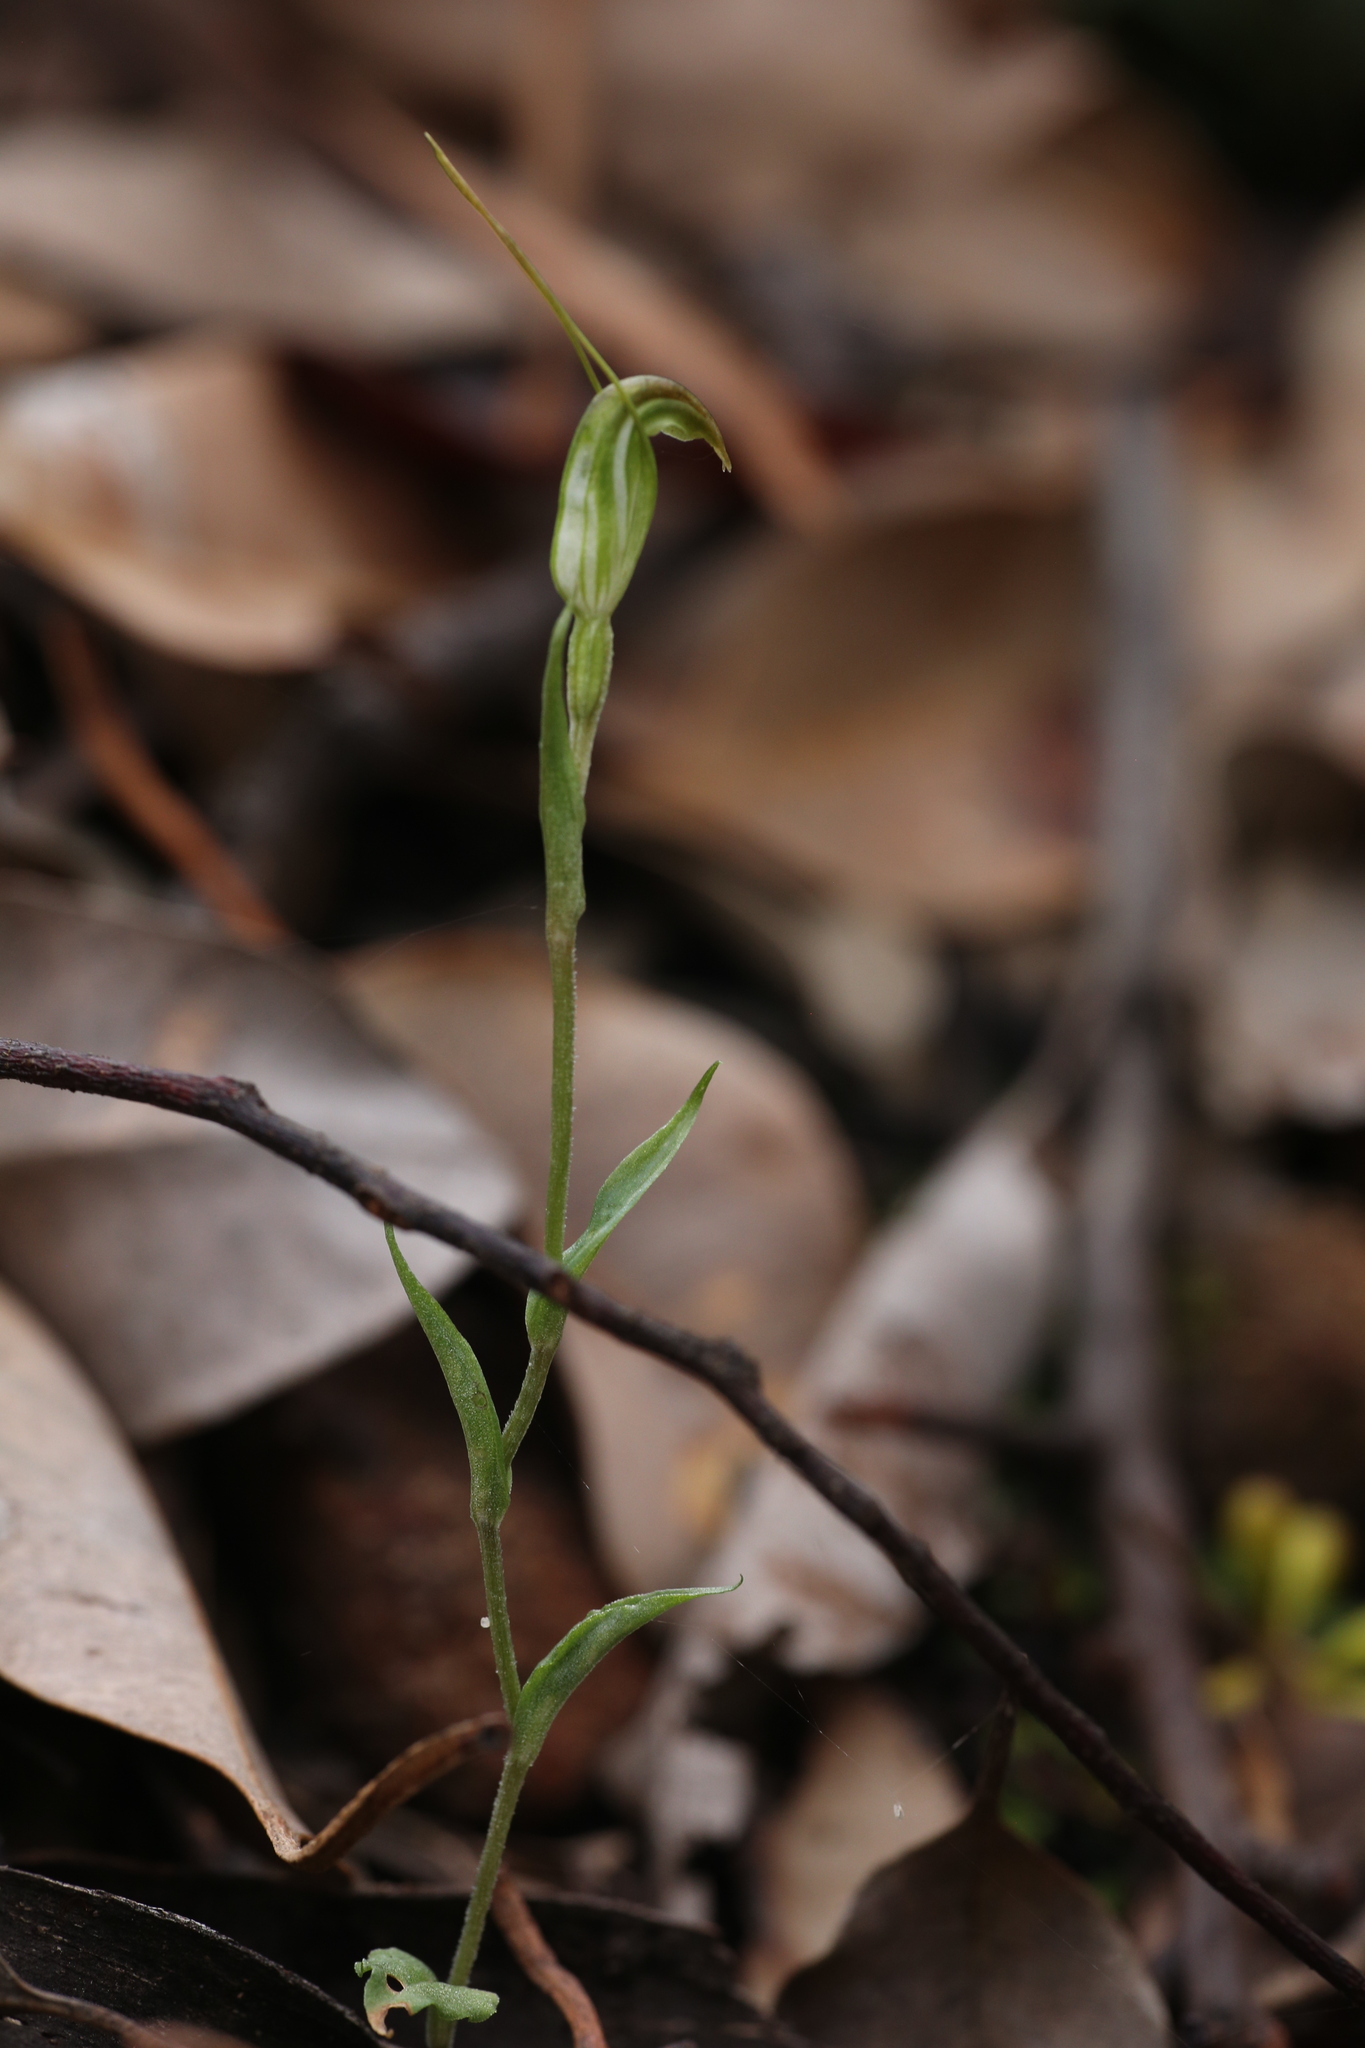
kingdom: Plantae
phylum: Tracheophyta
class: Liliopsida
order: Asparagales
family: Orchidaceae
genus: Pterostylis
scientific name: Pterostylis erubescens
